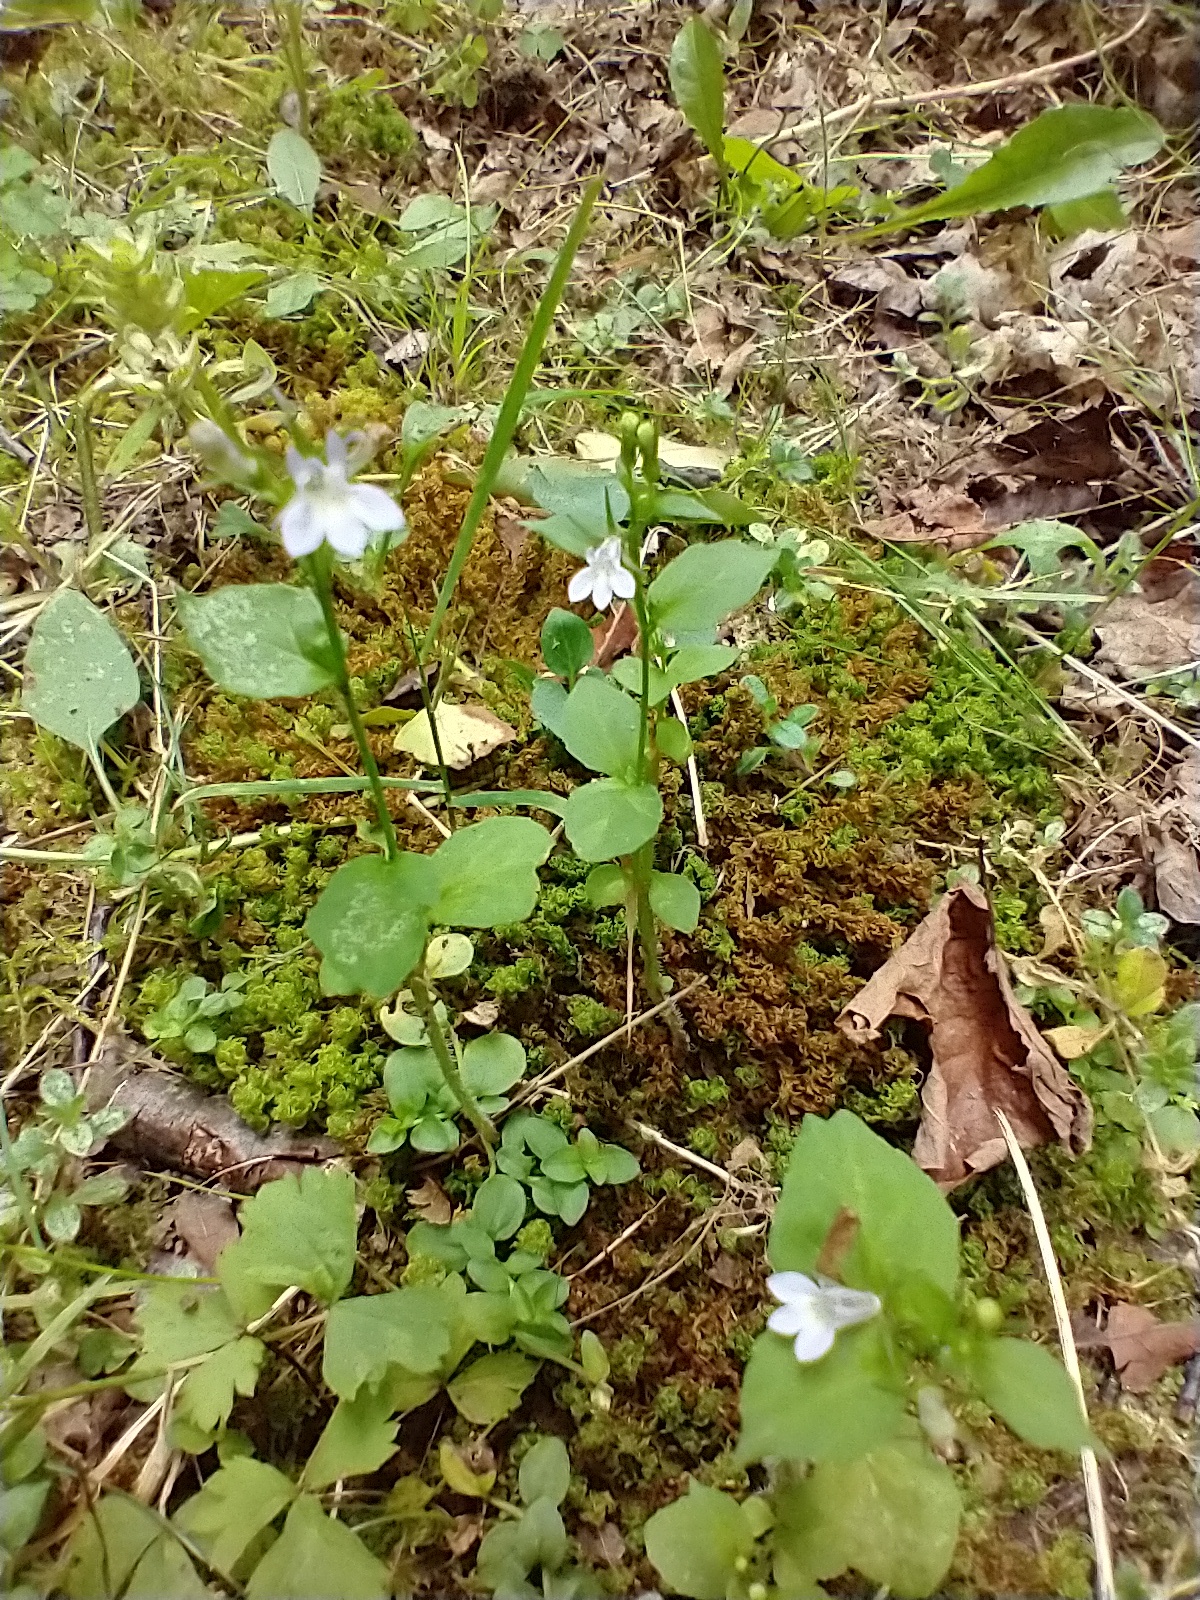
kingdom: Plantae
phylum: Tracheophyta
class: Magnoliopsida
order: Asterales
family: Campanulaceae
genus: Lobelia
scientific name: Lobelia inflata
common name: Indian tobacco
